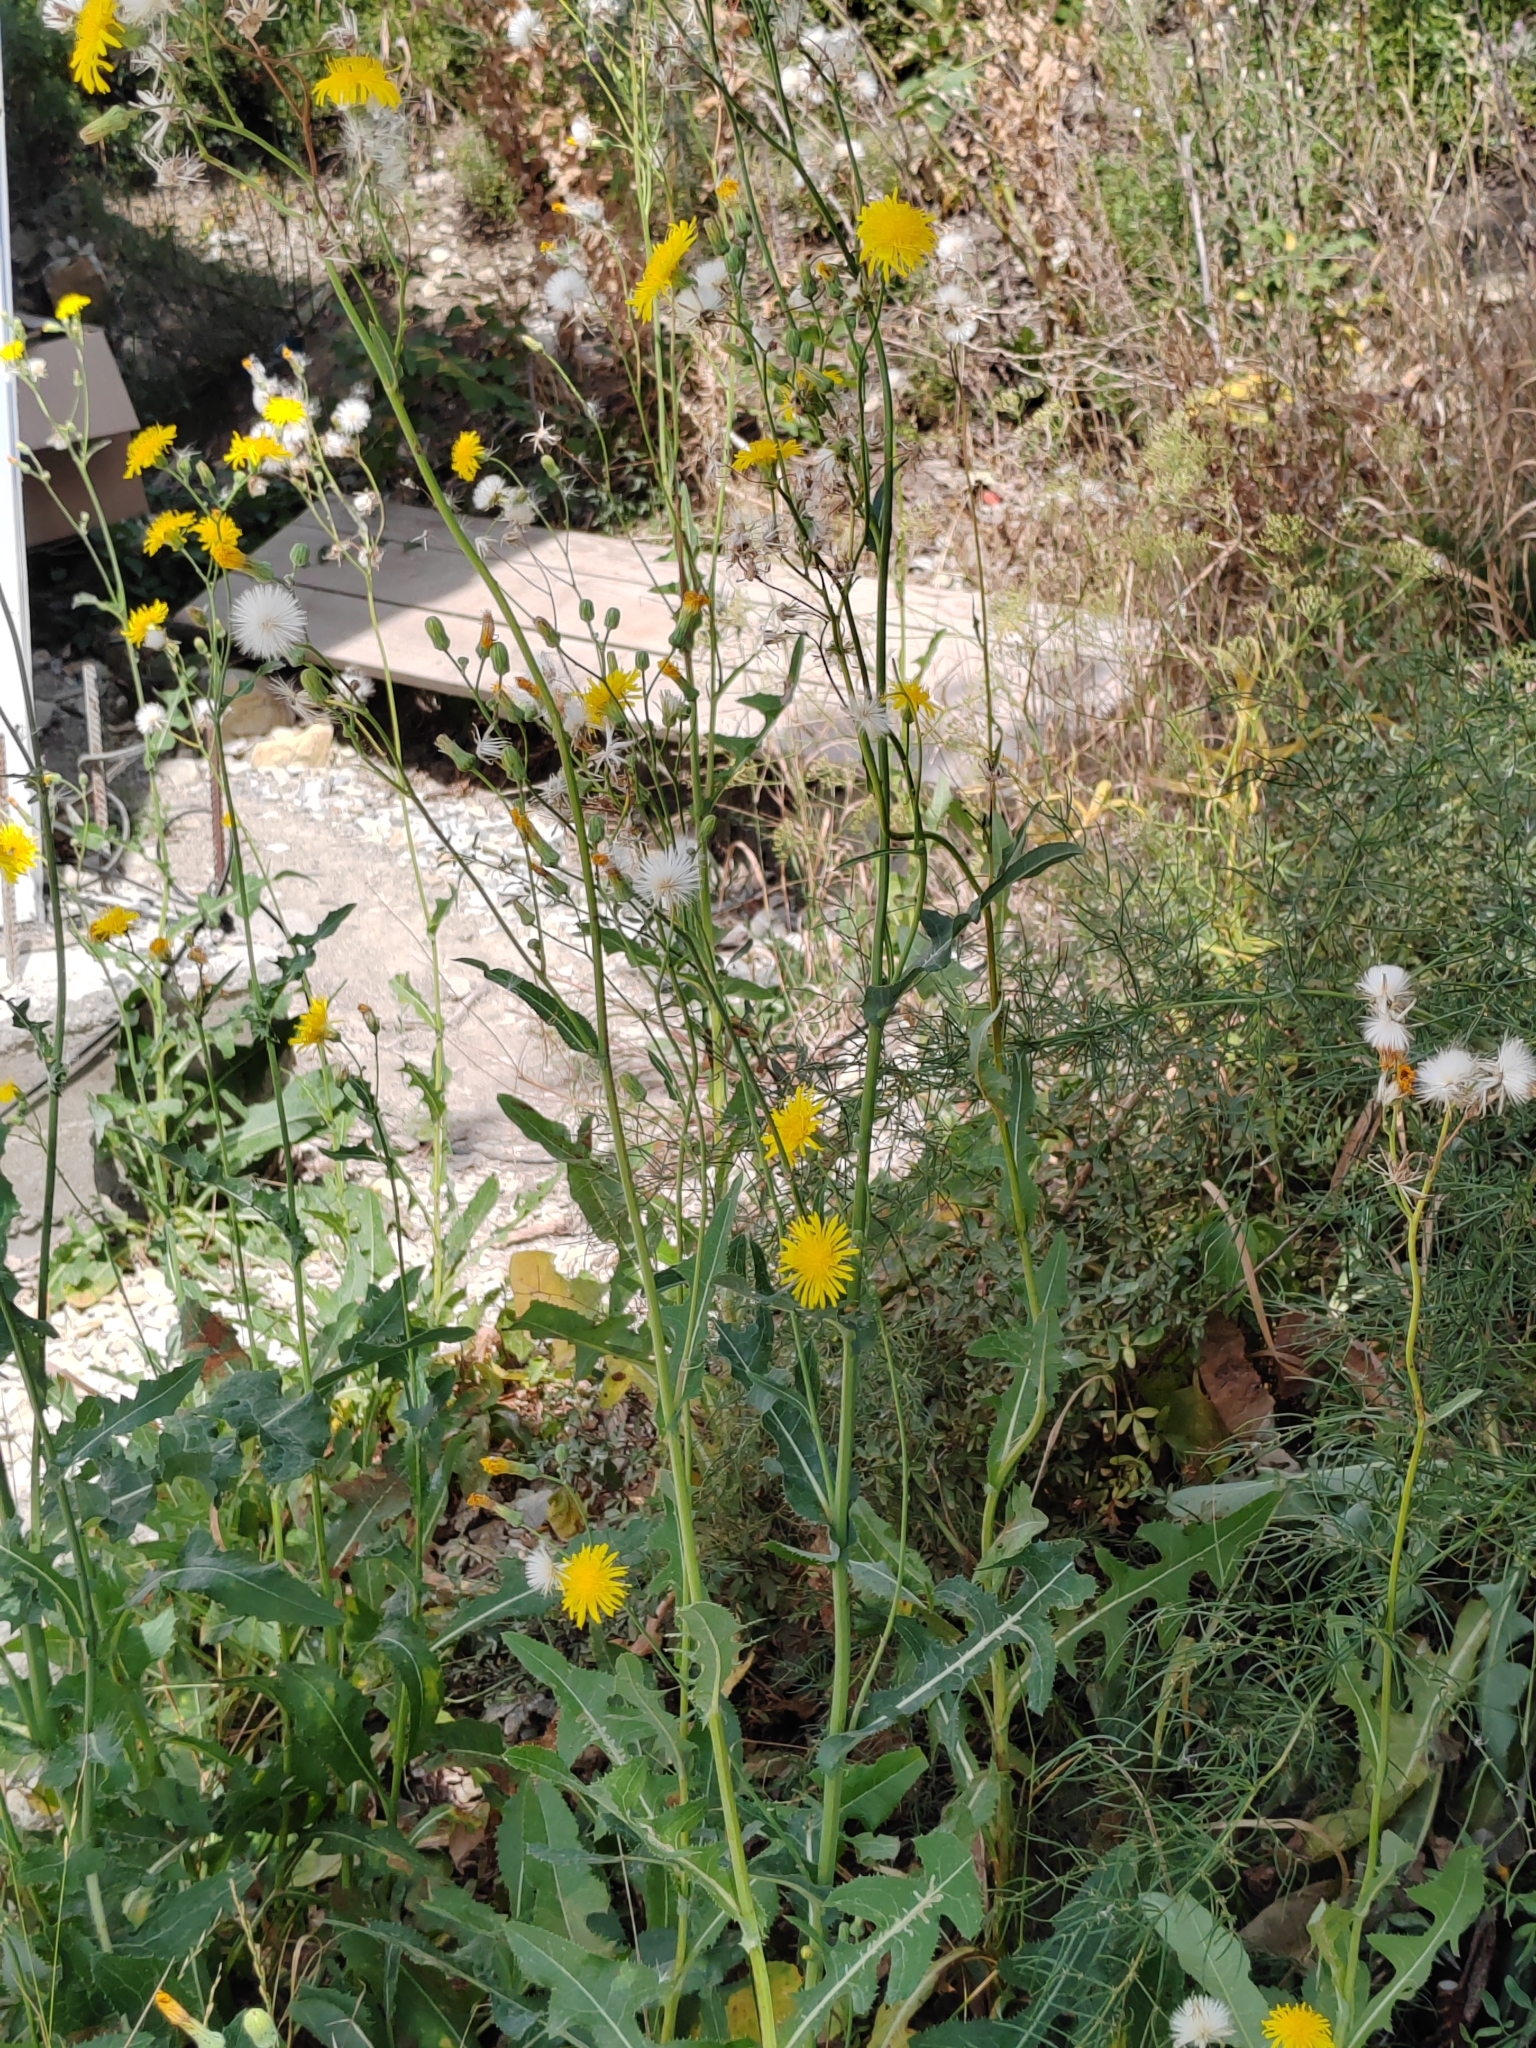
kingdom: Plantae
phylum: Tracheophyta
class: Magnoliopsida
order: Asterales
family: Asteraceae
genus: Sonchus
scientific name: Sonchus arvensis
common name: Perennial sow-thistle
